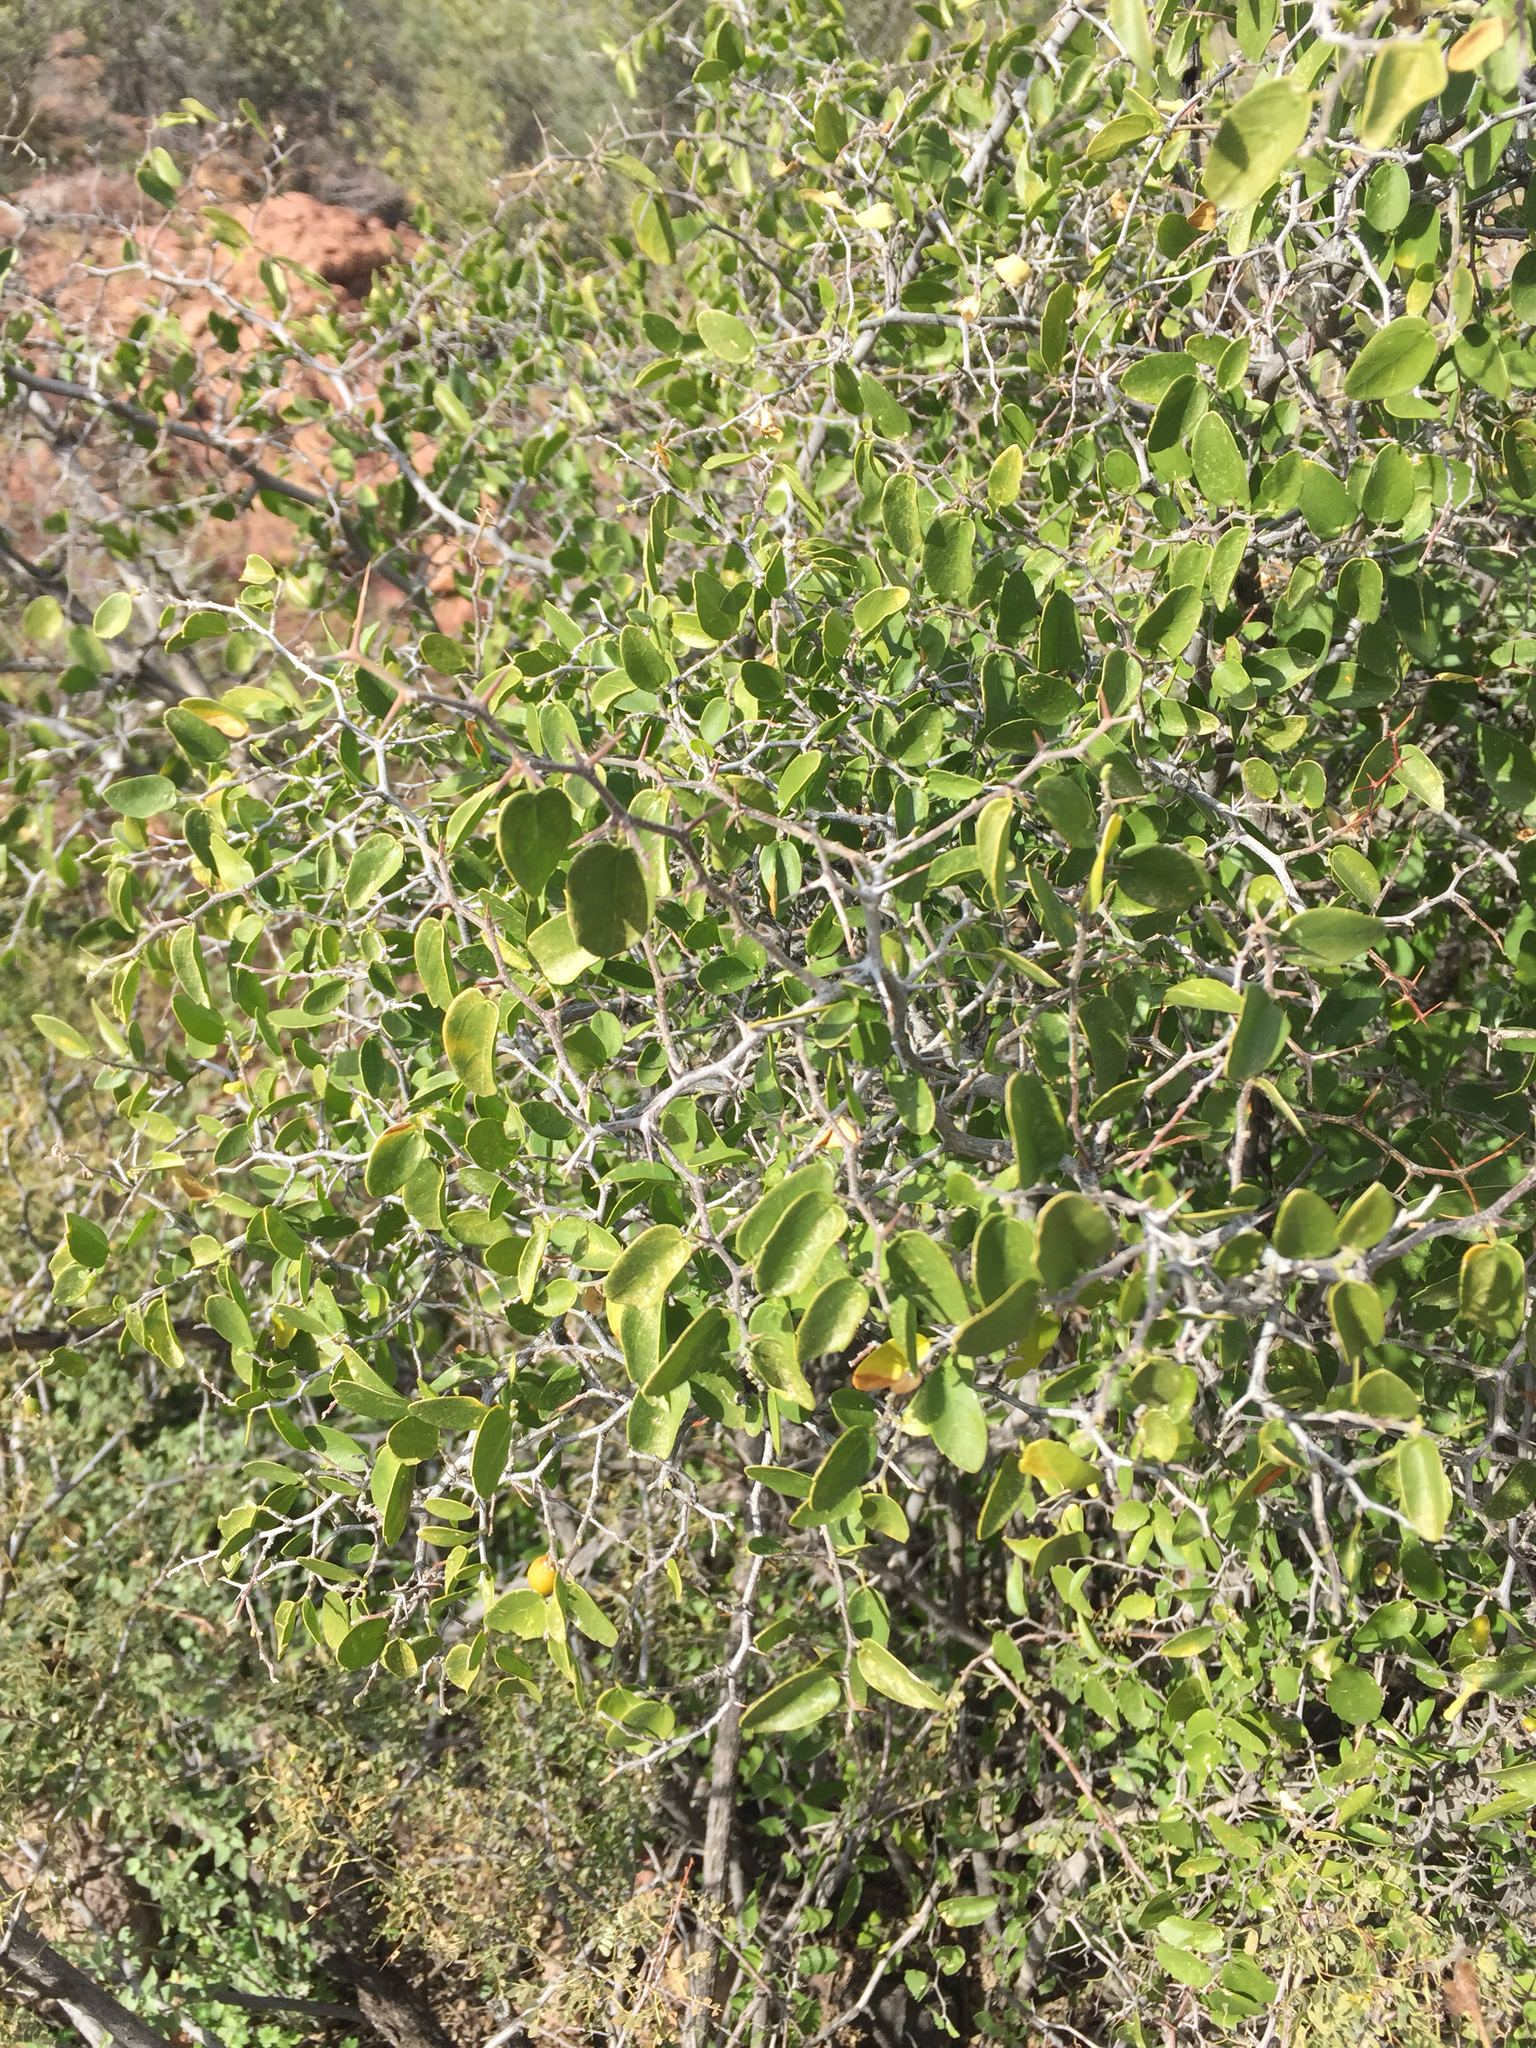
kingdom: Plantae
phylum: Tracheophyta
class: Magnoliopsida
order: Rosales
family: Cannabaceae
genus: Celtis
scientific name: Celtis pallida
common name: Desert hackberry
